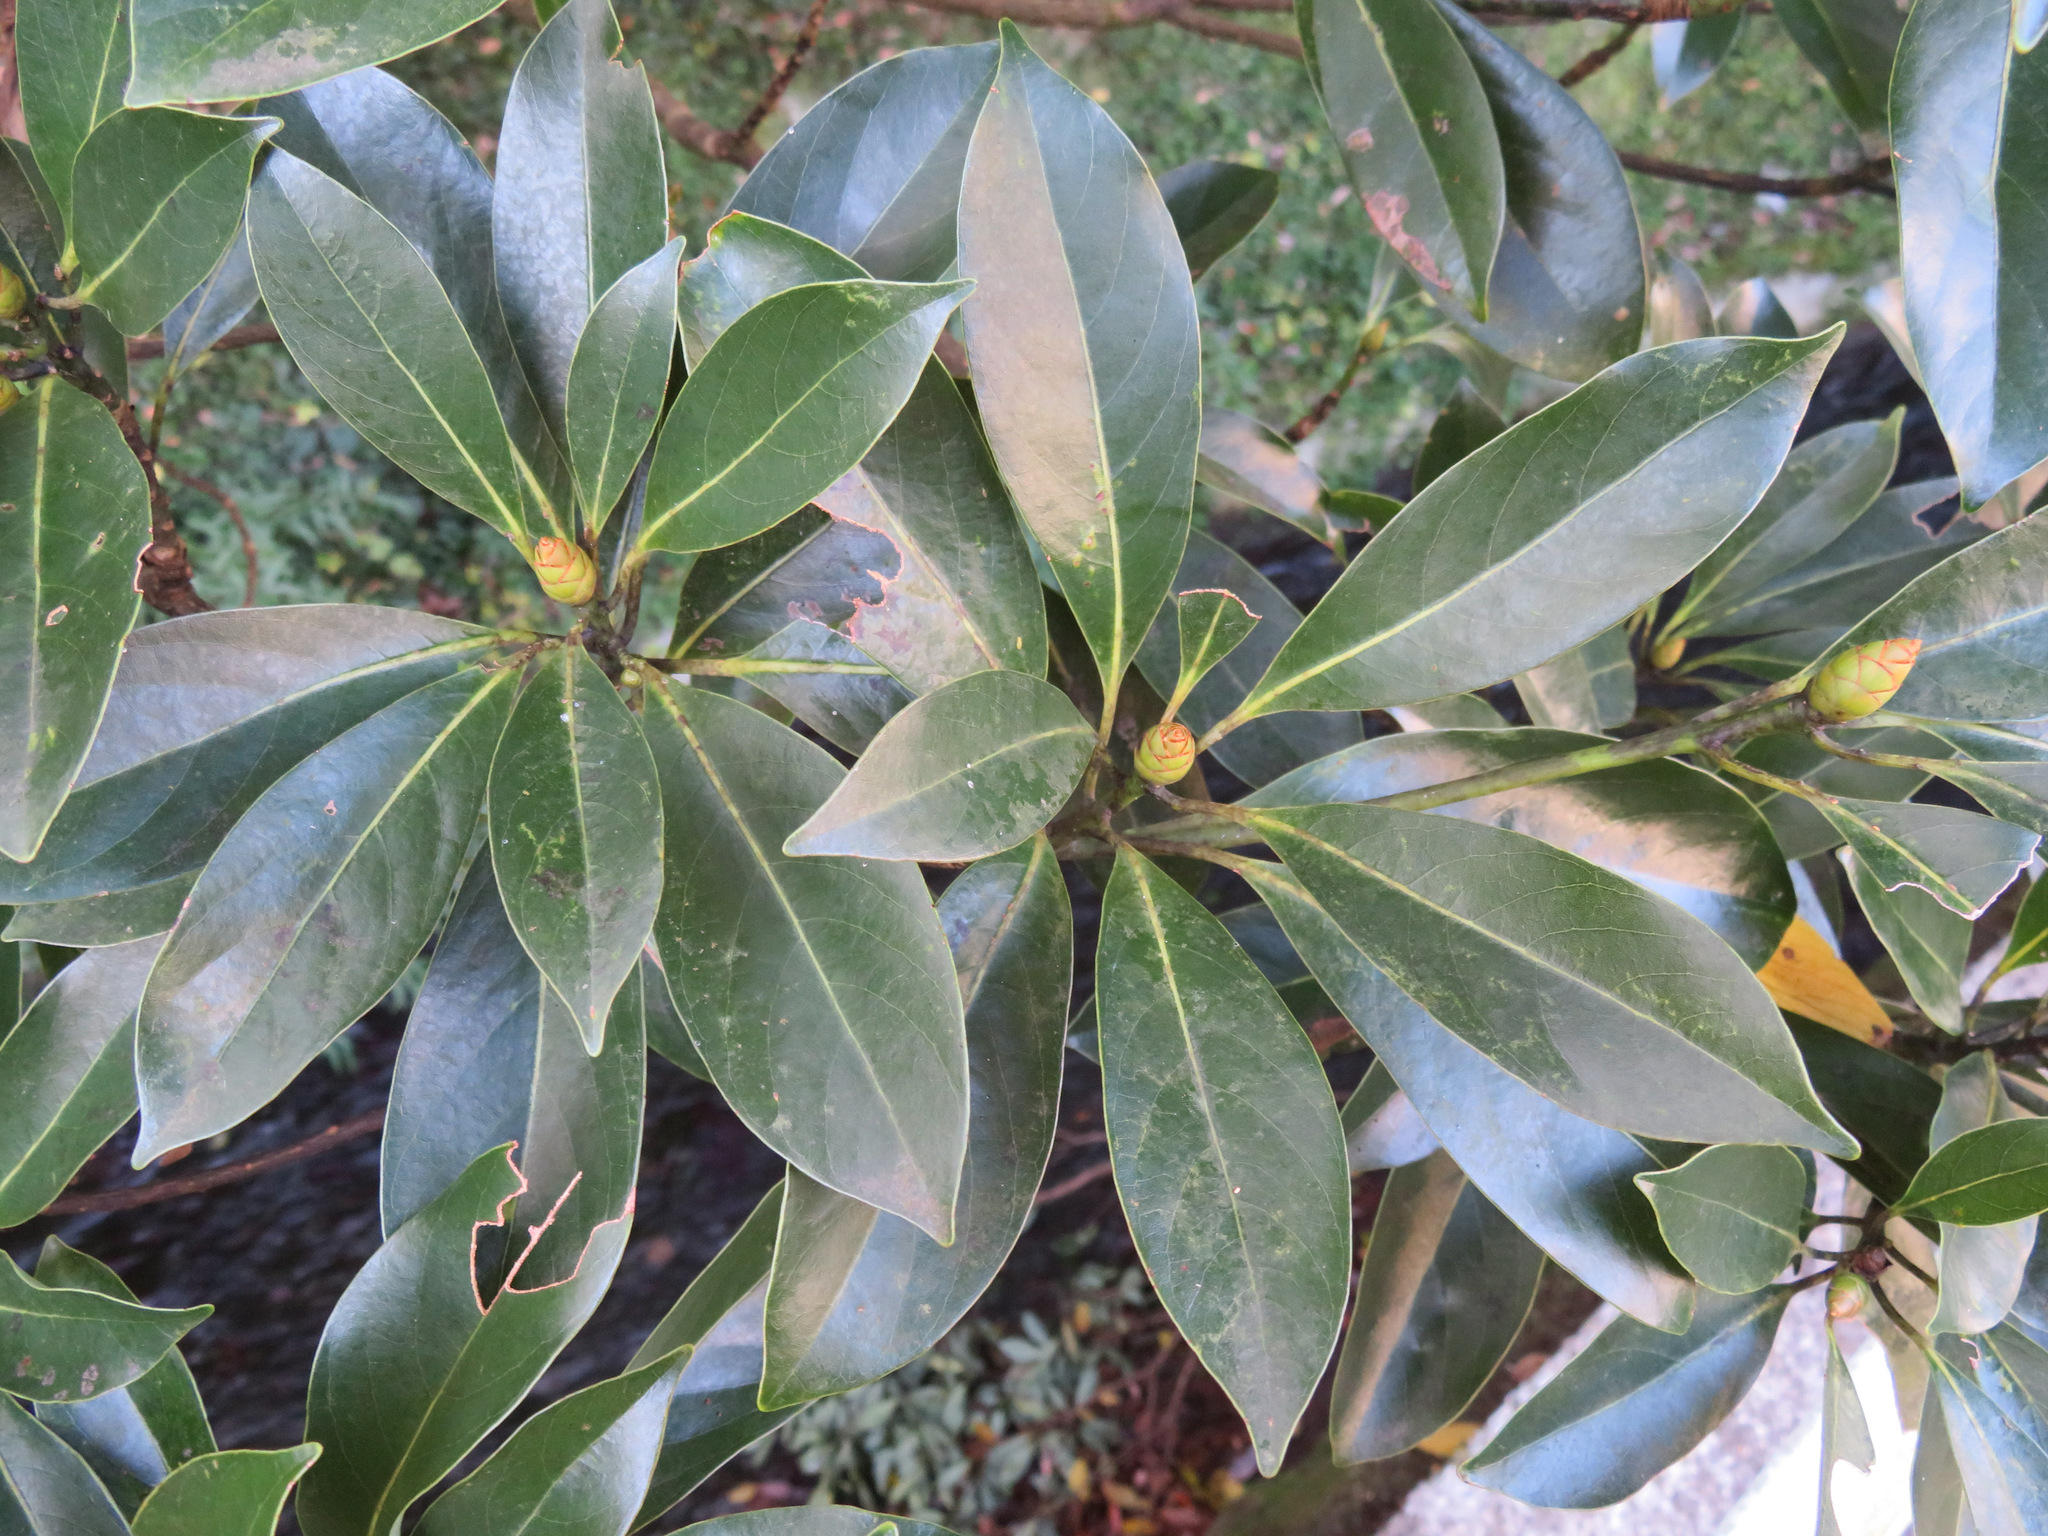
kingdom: Plantae
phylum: Tracheophyta
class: Magnoliopsida
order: Laurales
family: Lauraceae
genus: Machilus
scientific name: Machilus thunbergii
